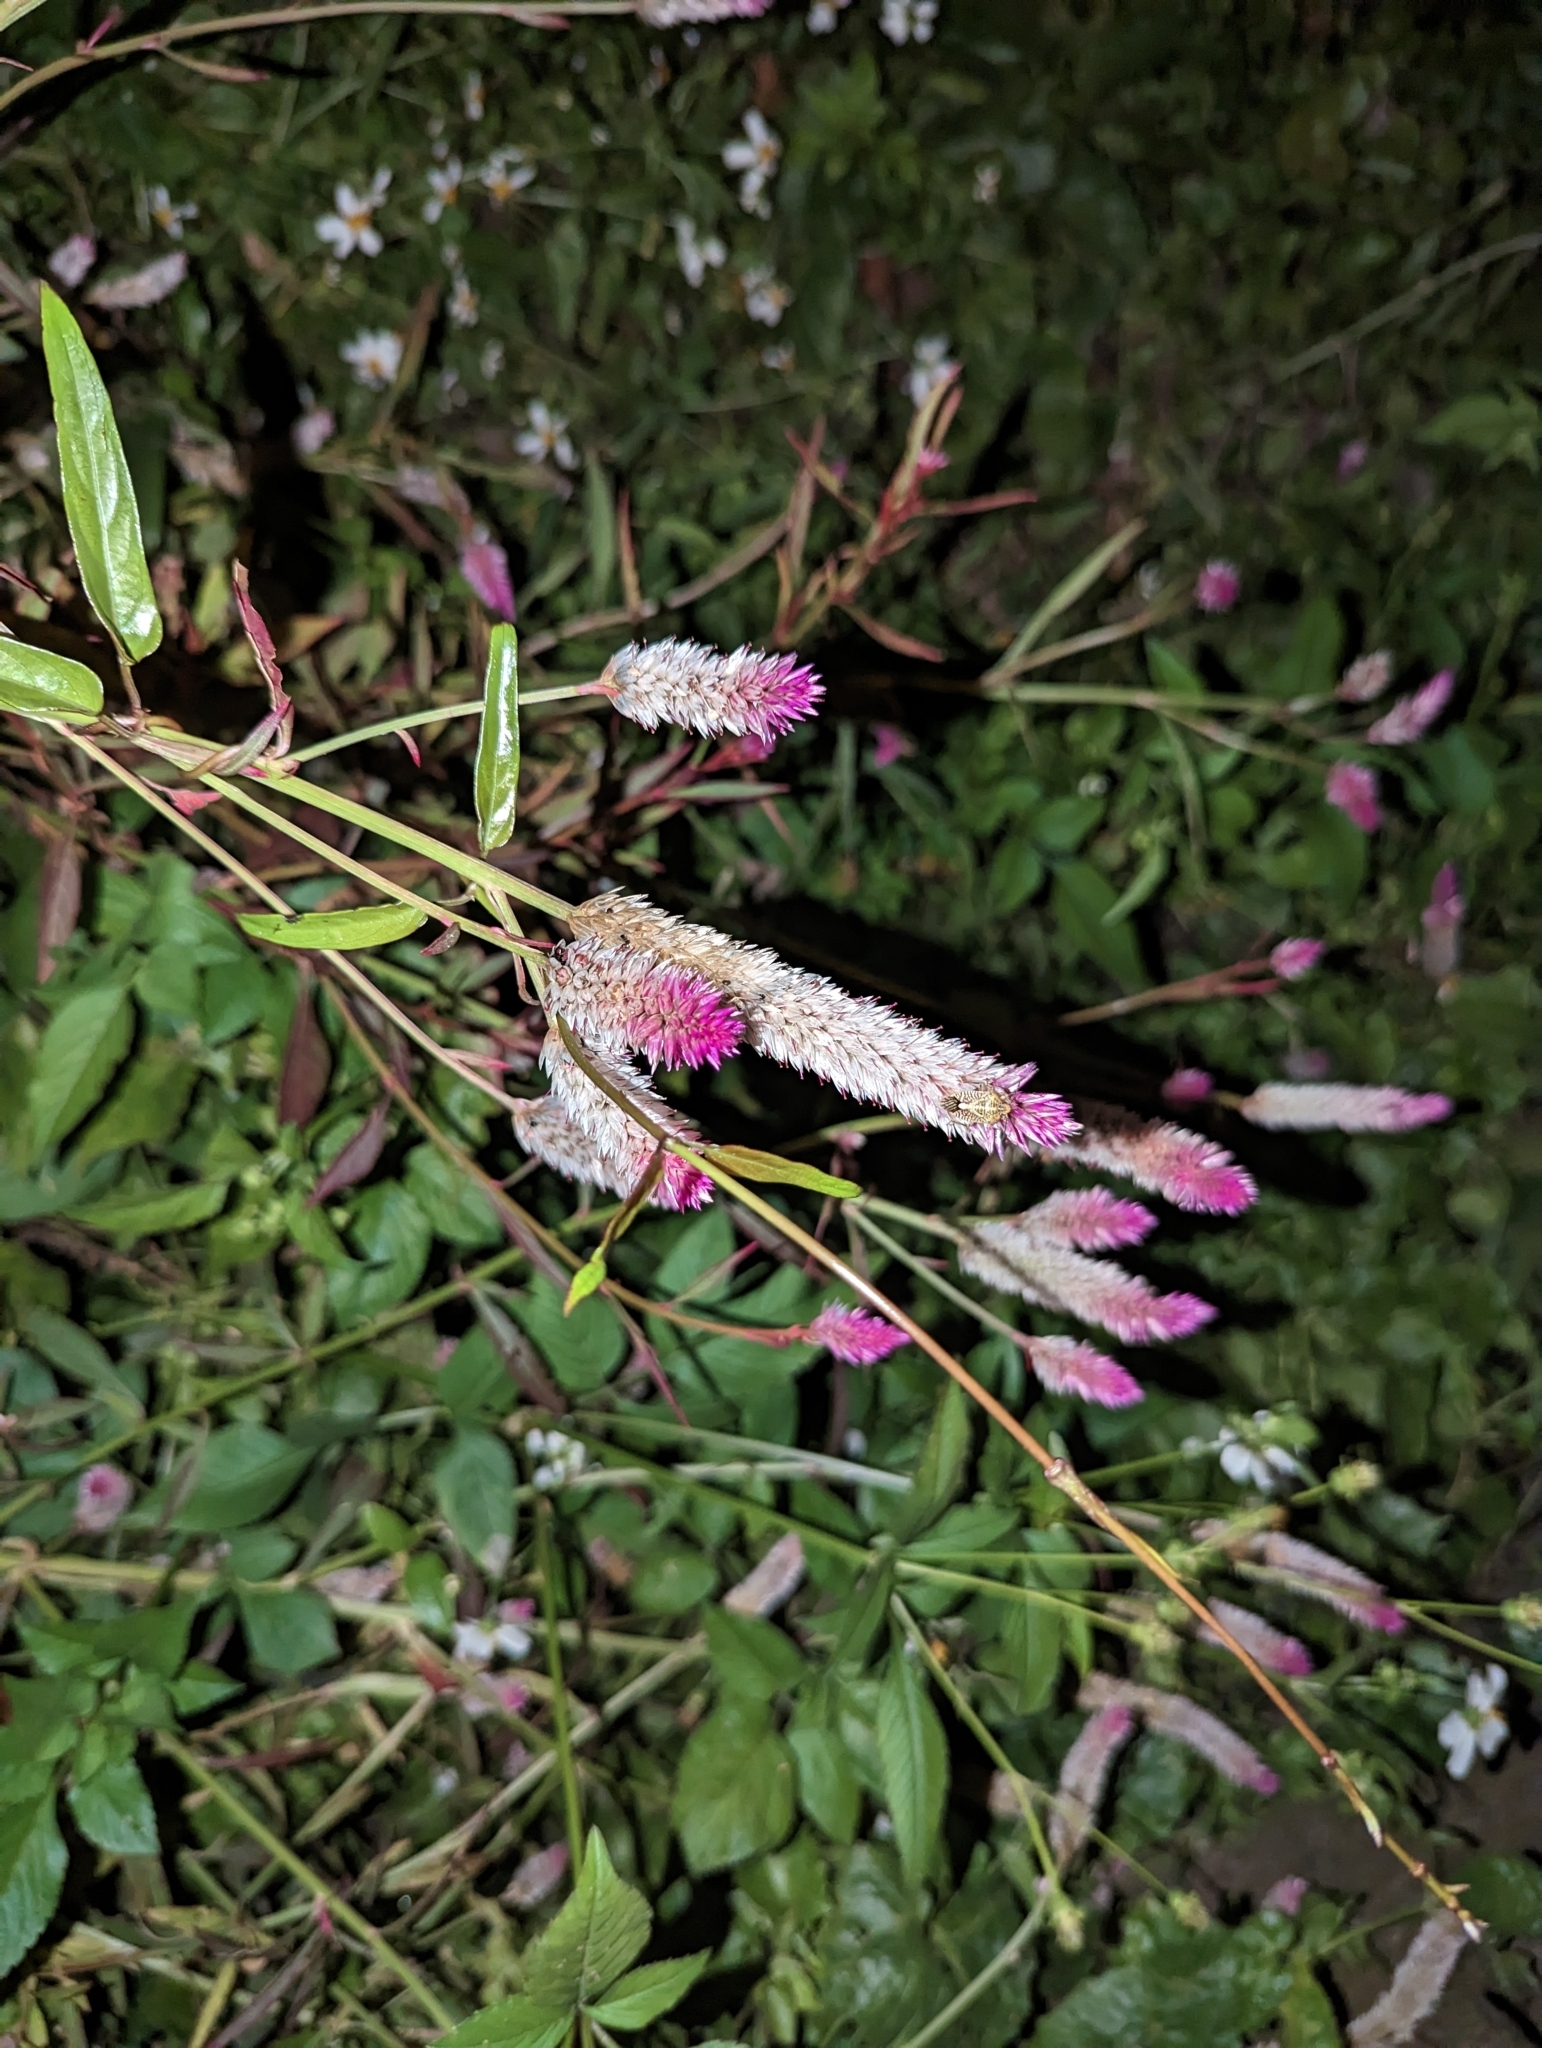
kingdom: Plantae
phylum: Tracheophyta
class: Magnoliopsida
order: Caryophyllales
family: Amaranthaceae
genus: Celosia
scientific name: Celosia argentea
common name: Feather cockscomb
